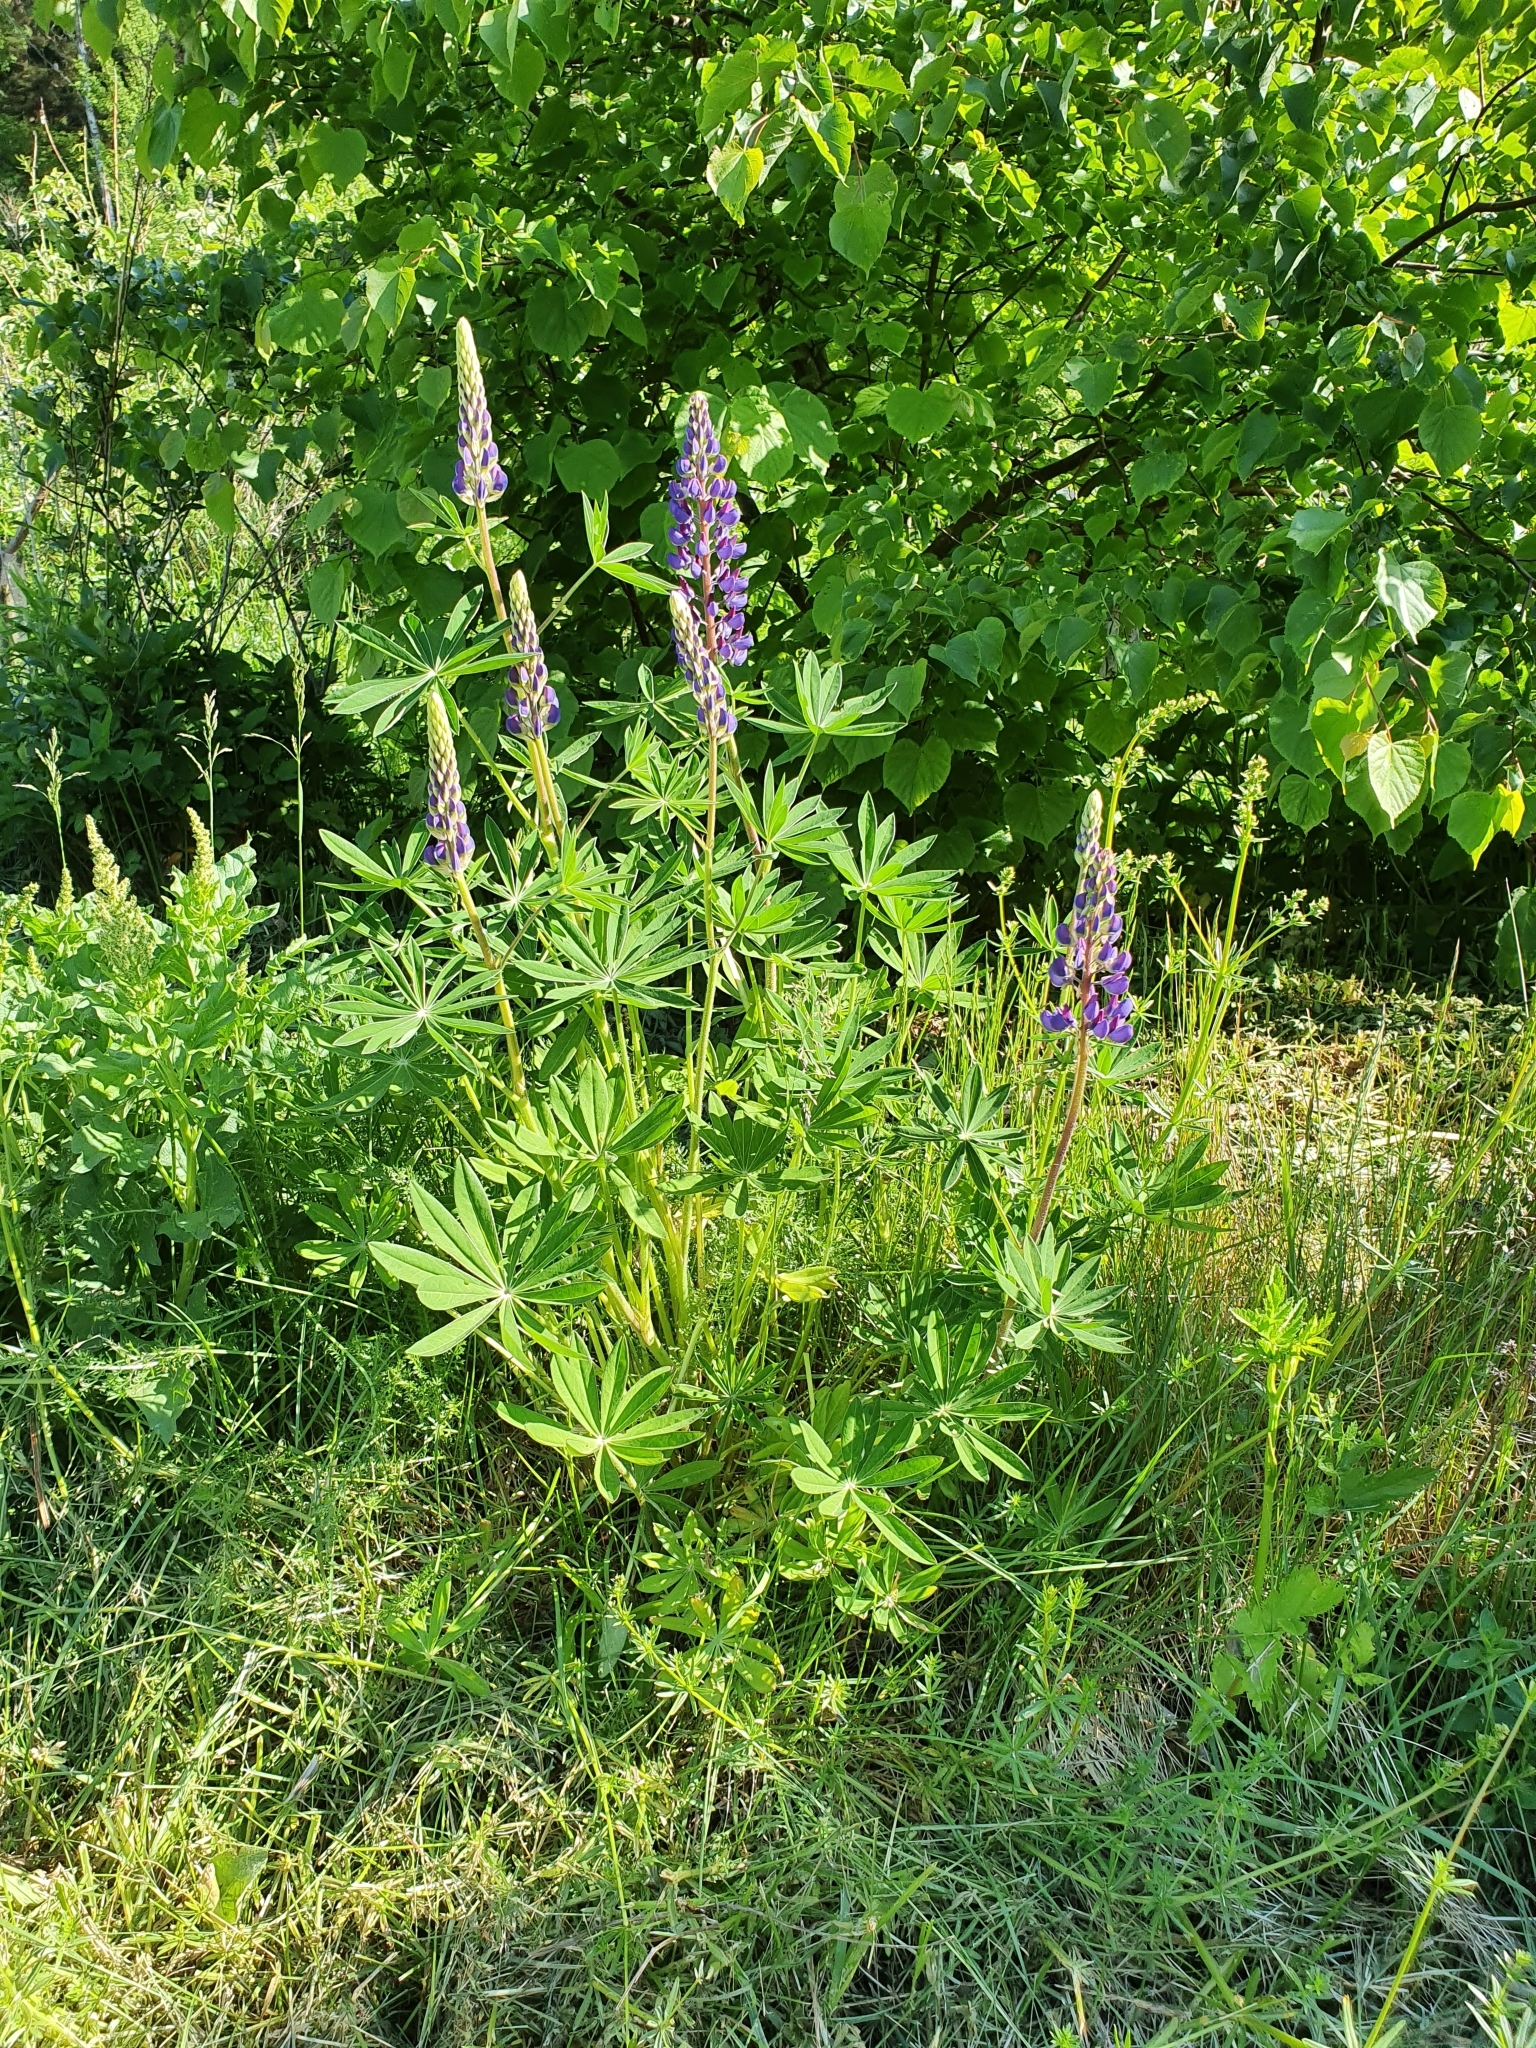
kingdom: Plantae
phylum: Tracheophyta
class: Magnoliopsida
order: Fabales
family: Fabaceae
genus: Lupinus
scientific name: Lupinus polyphyllus
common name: Garden lupin
